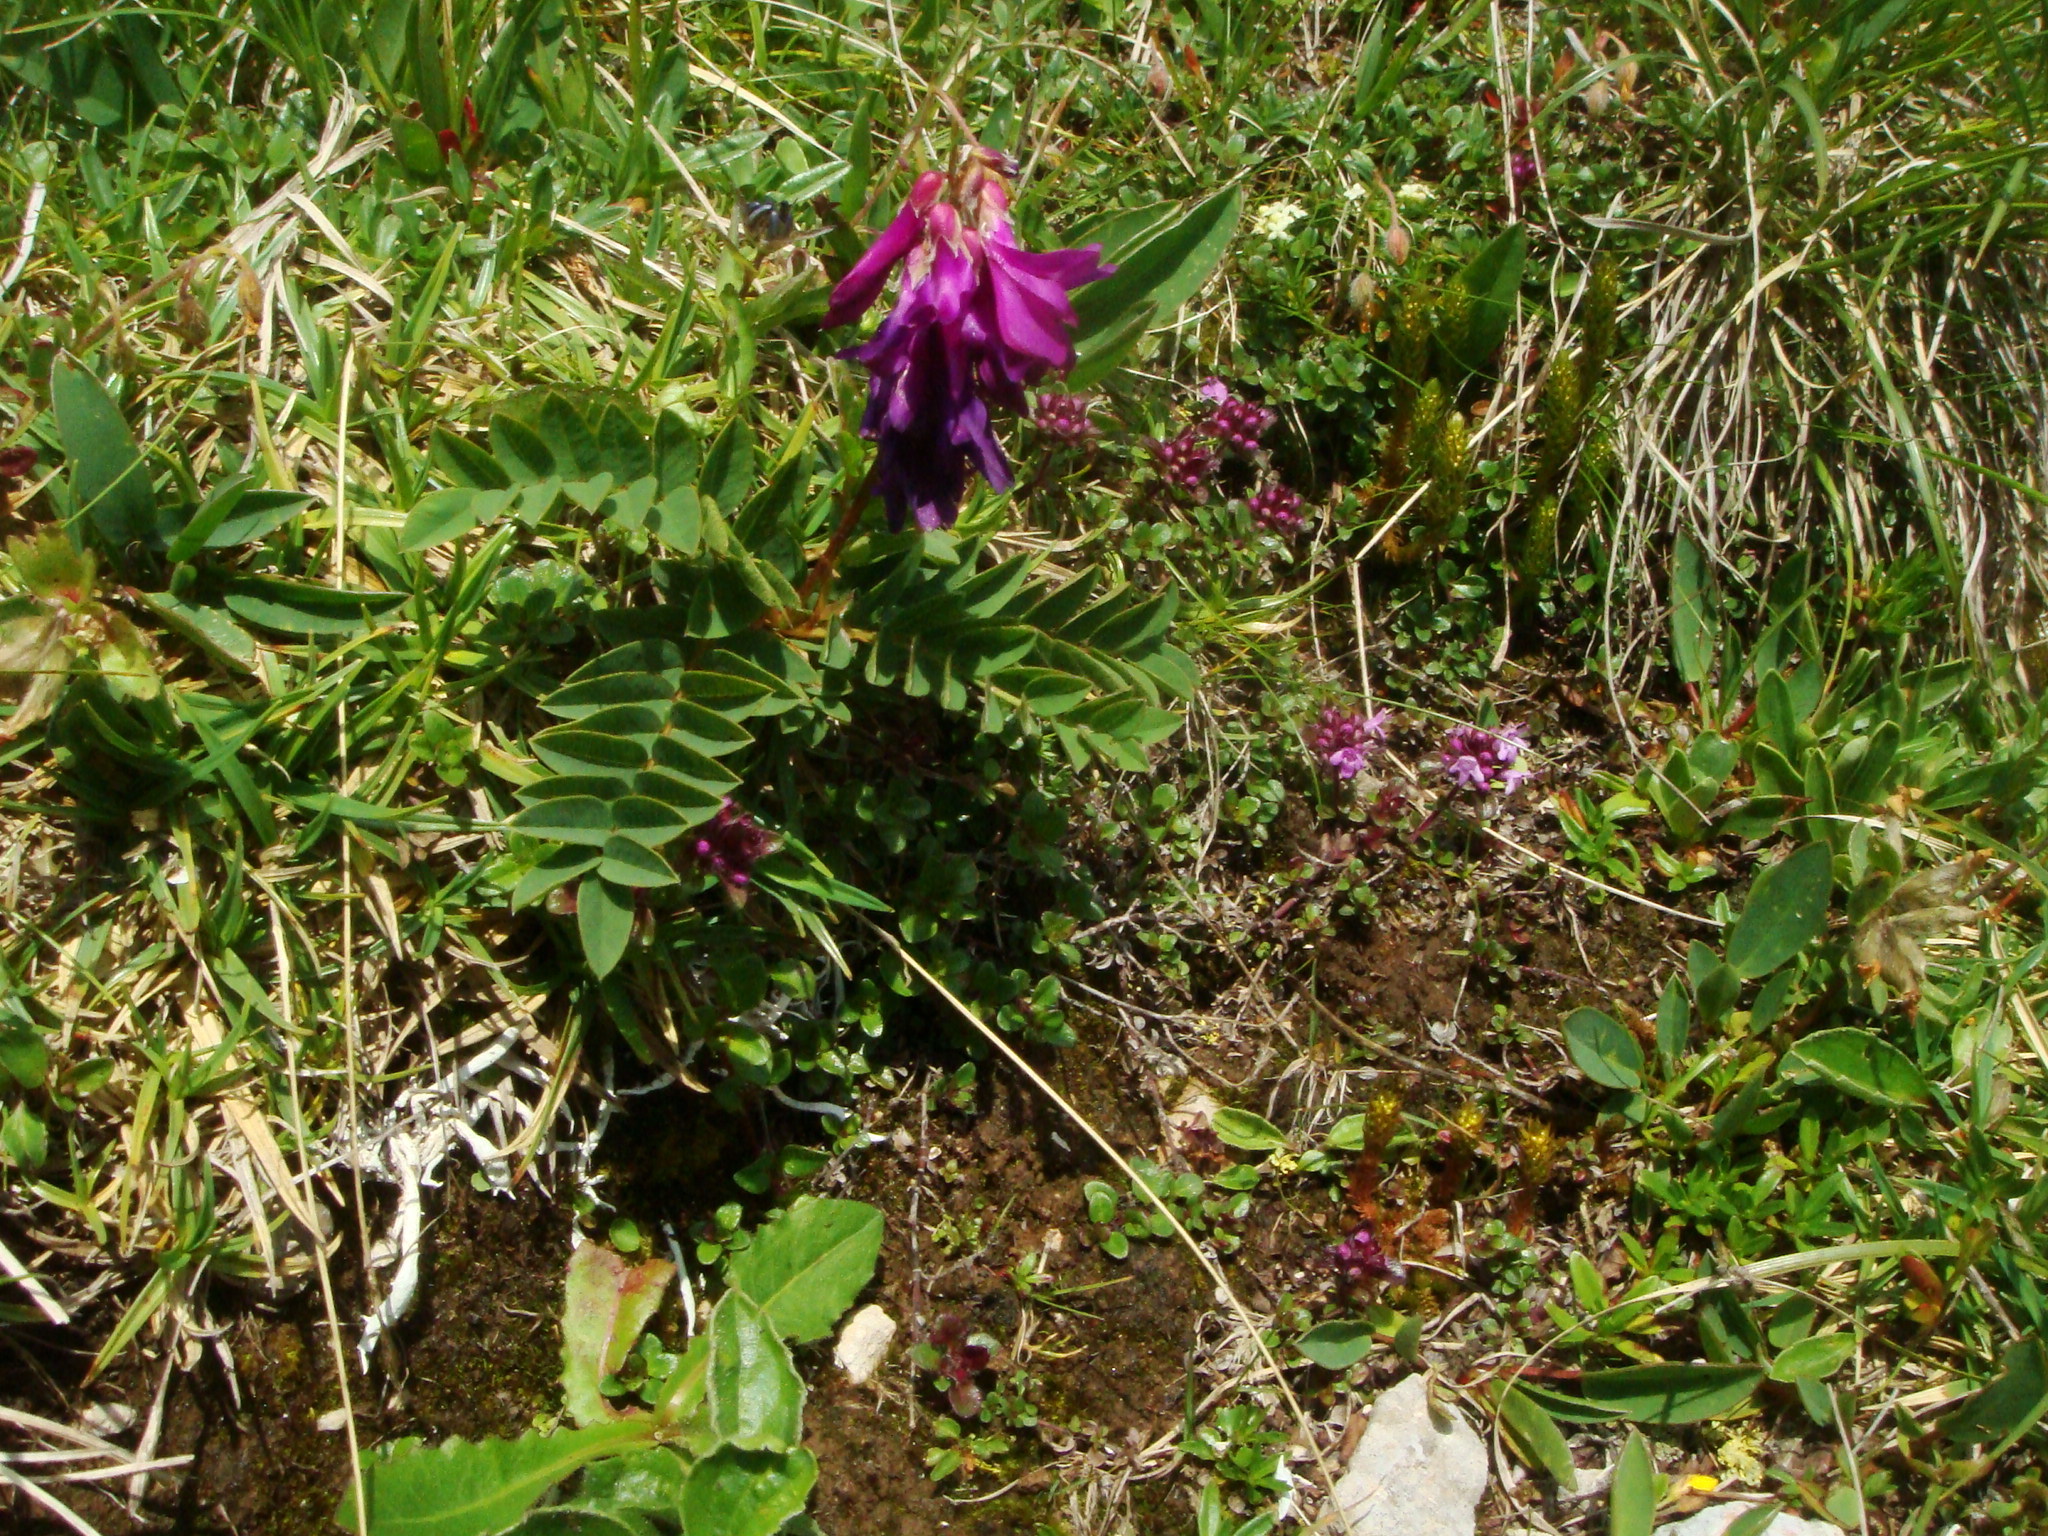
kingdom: Plantae
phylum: Tracheophyta
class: Magnoliopsida
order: Fabales
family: Fabaceae
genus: Hedysarum
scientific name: Hedysarum hedysaroides
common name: Alpine french-honeysuckle
